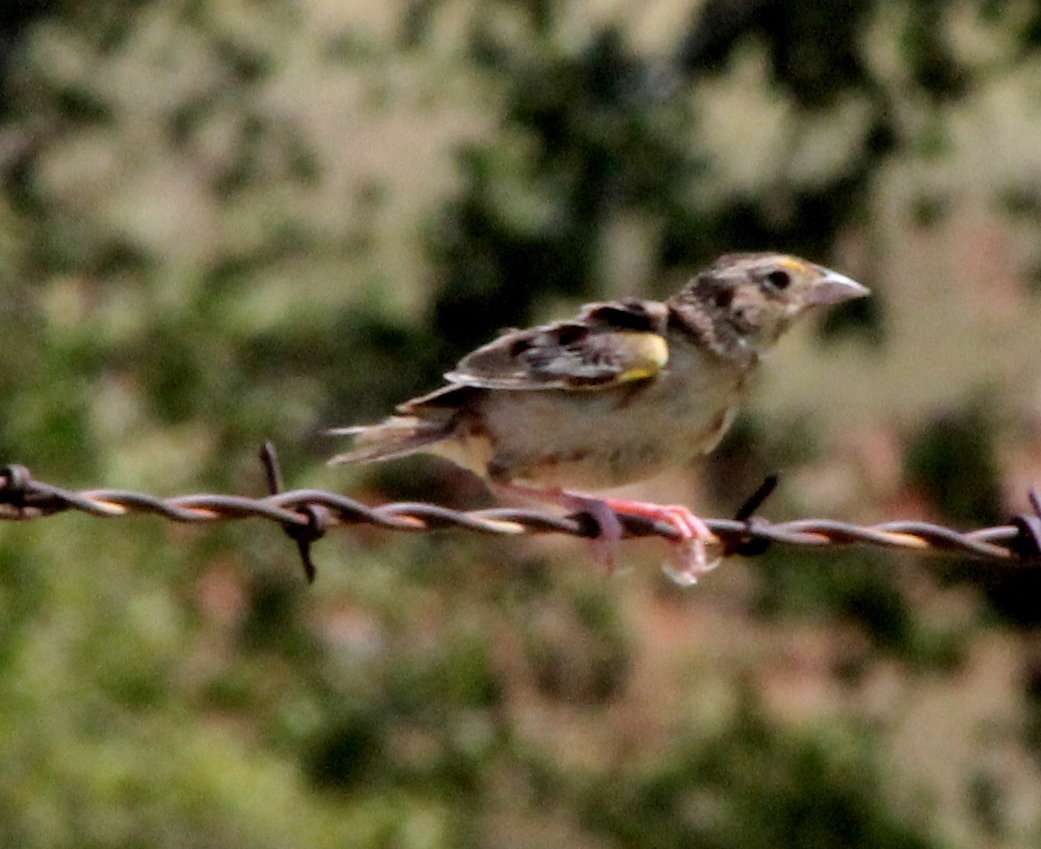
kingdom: Animalia
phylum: Chordata
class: Aves
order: Passeriformes
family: Passerellidae
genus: Ammodramus
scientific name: Ammodramus savannarum
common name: Grasshopper sparrow
